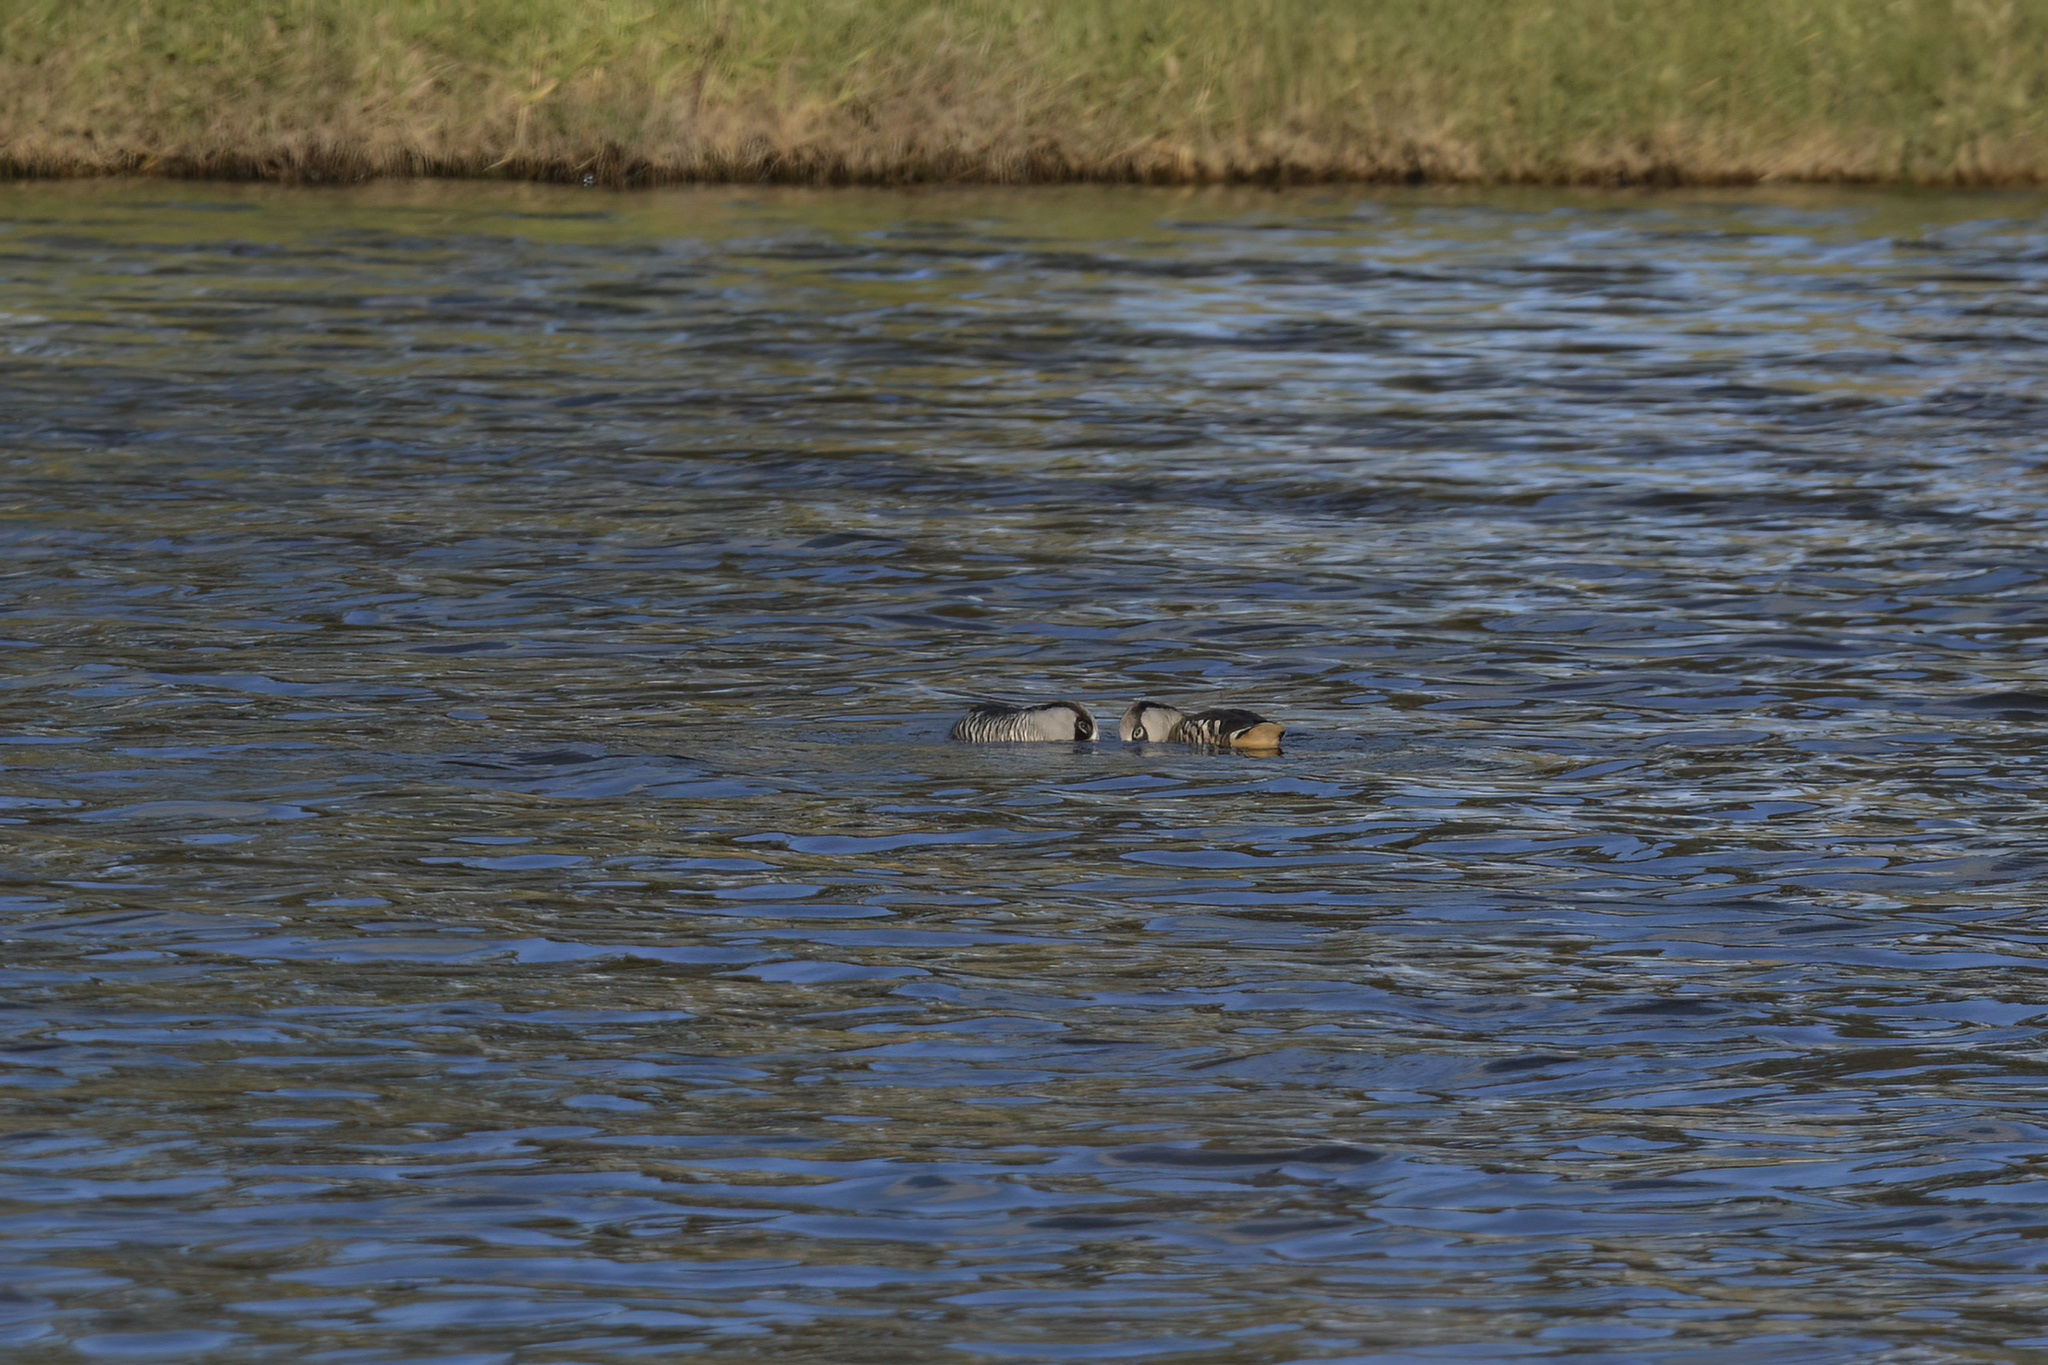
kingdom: Animalia
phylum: Chordata
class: Aves
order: Anseriformes
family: Anatidae
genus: Malacorhynchus
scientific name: Malacorhynchus membranaceus
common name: Pink-eared duck
